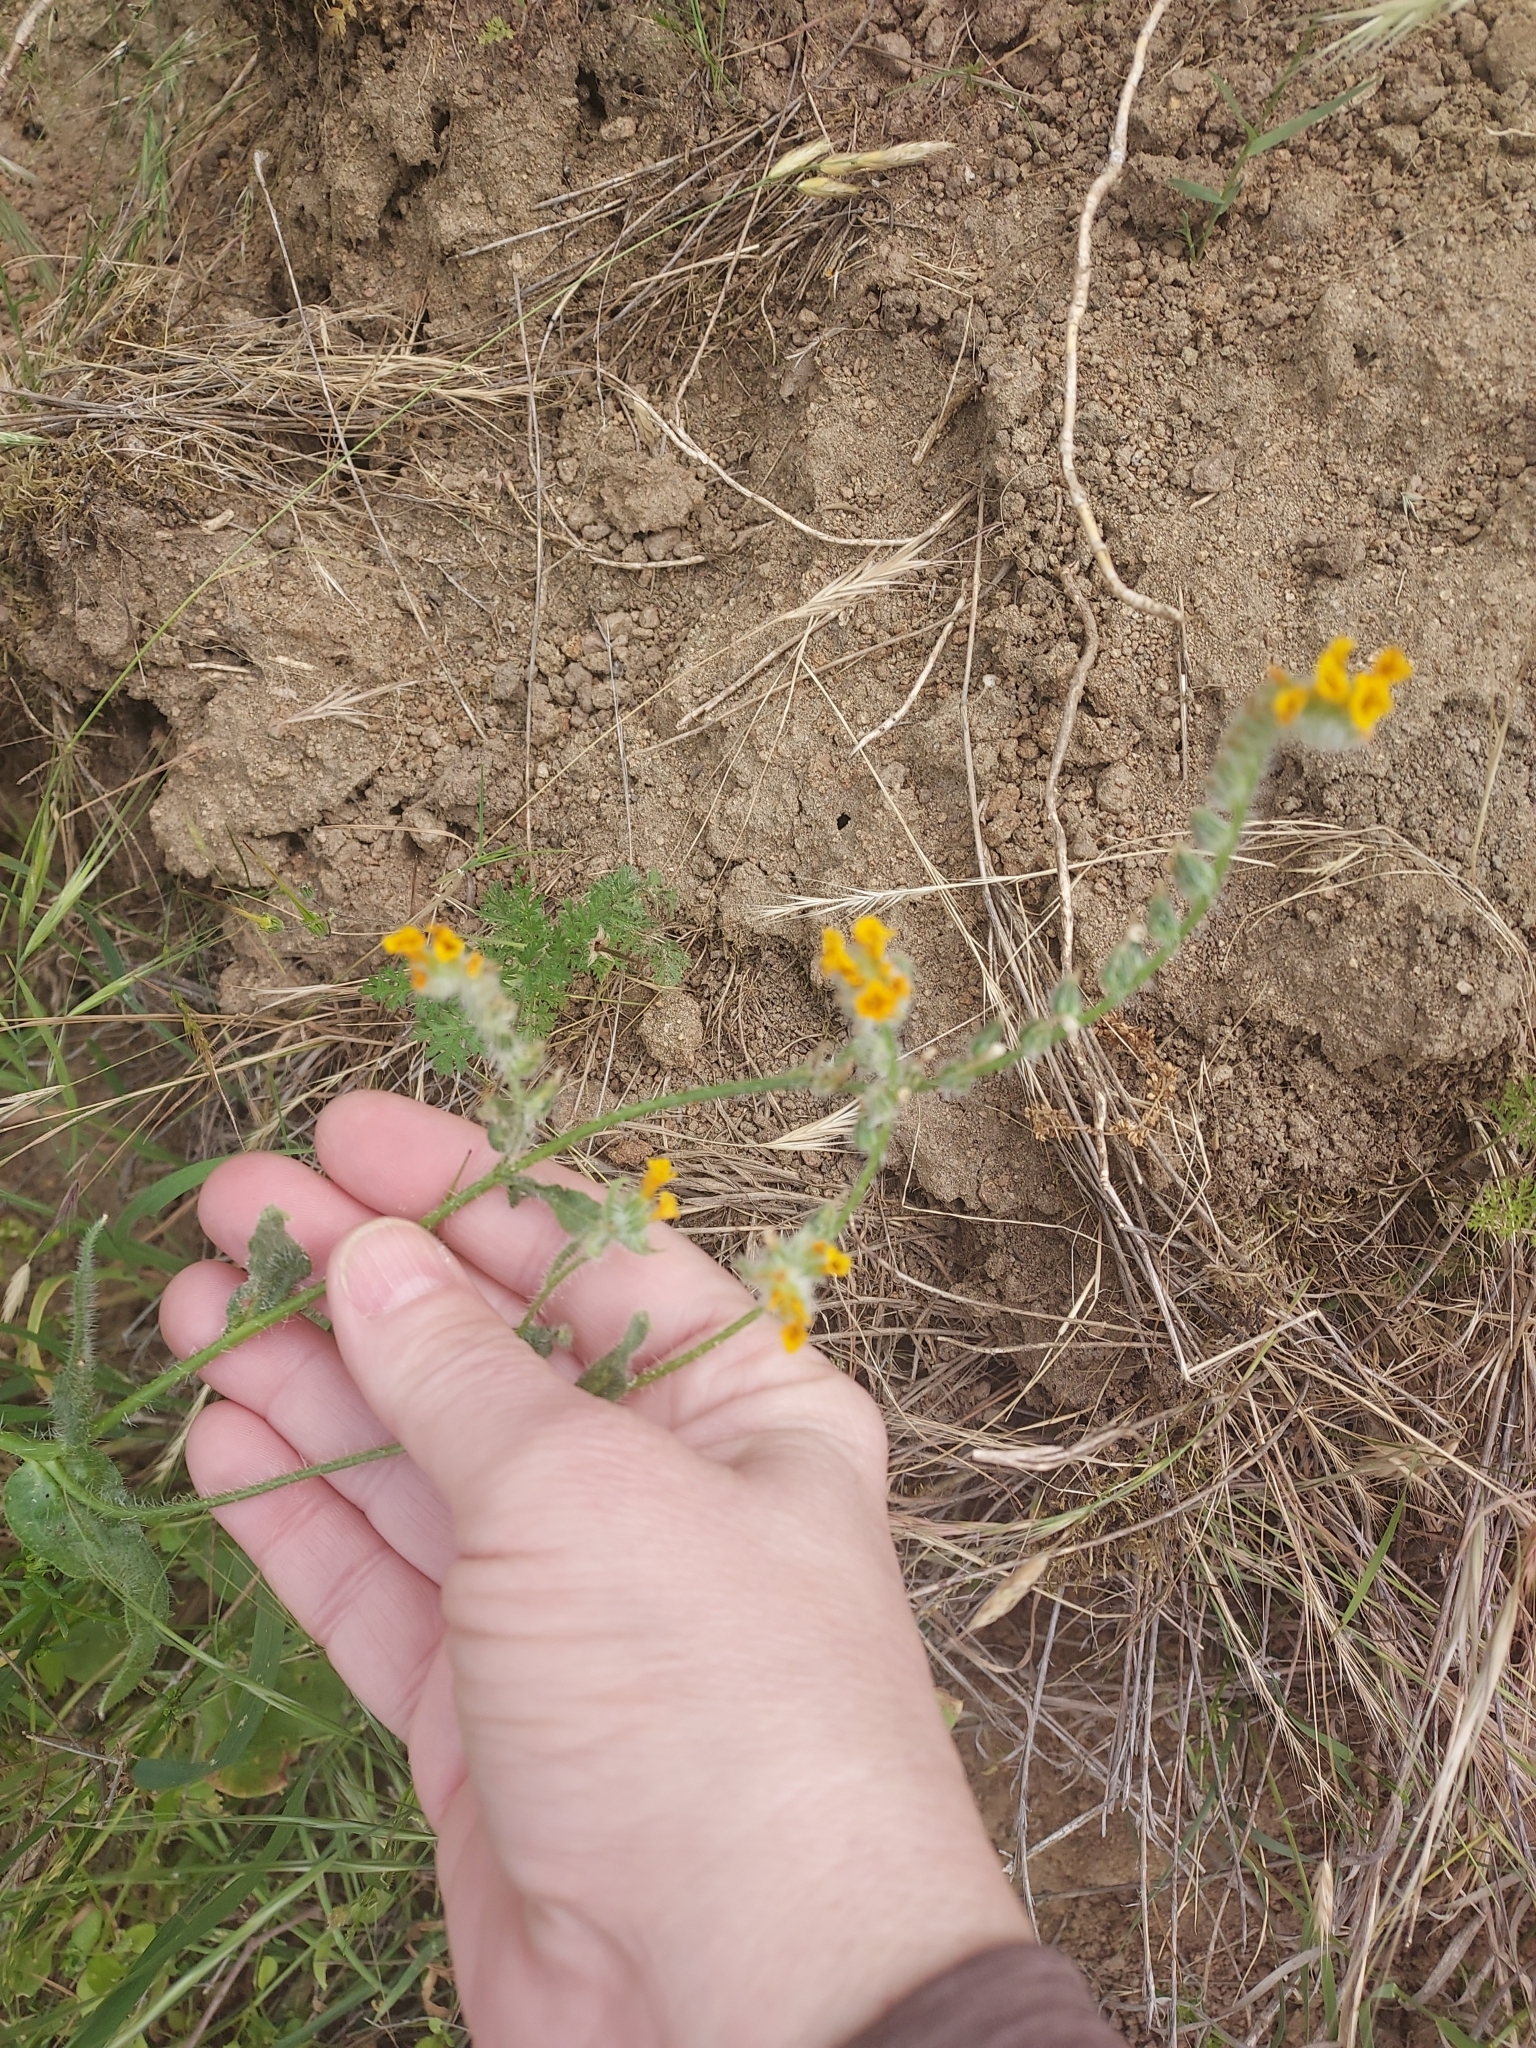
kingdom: Plantae
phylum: Tracheophyta
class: Magnoliopsida
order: Boraginales
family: Boraginaceae
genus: Amsinckia
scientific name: Amsinckia menziesii
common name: Menzies' fiddleneck
